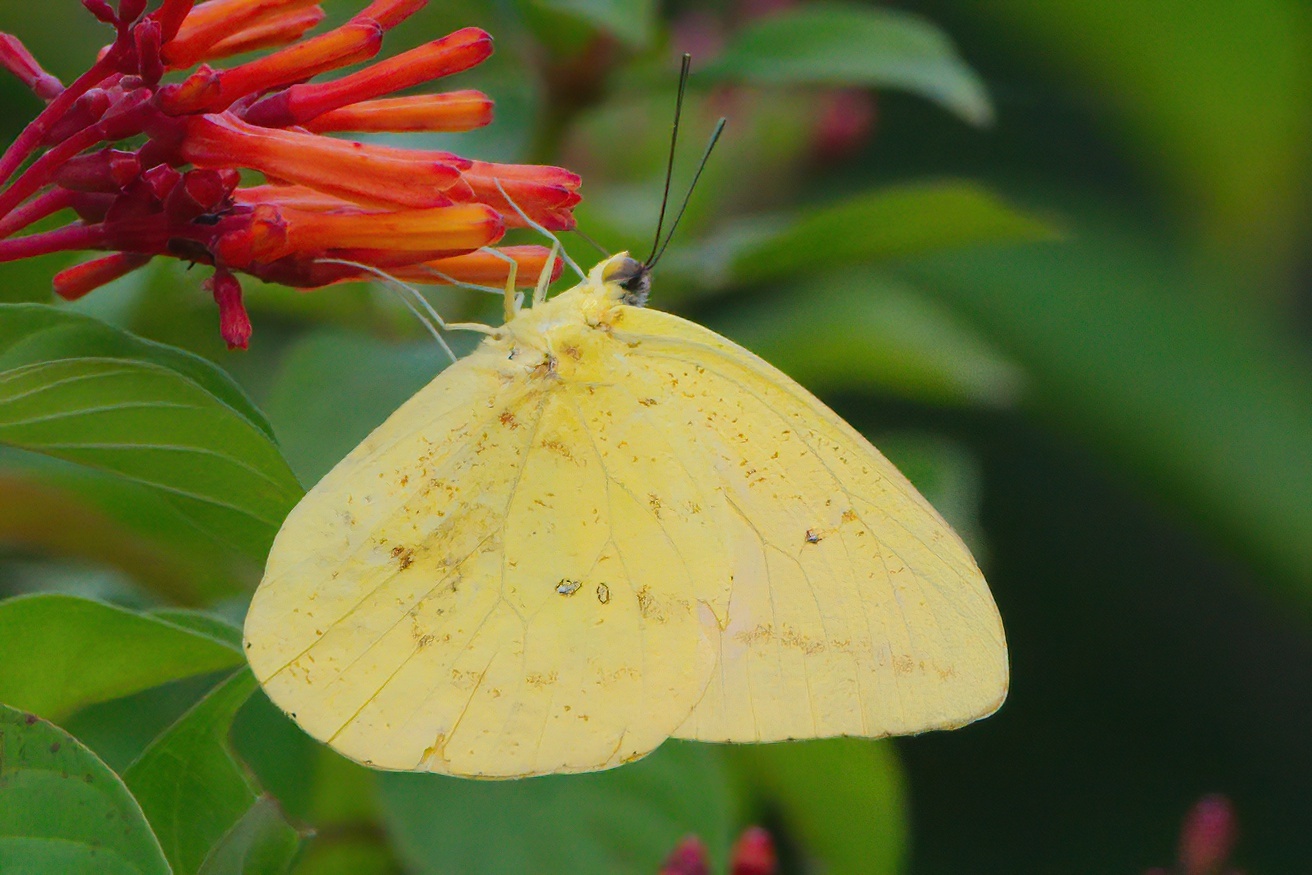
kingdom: Animalia
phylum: Arthropoda
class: Insecta
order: Lepidoptera
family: Pieridae
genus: Phoebis
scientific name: Phoebis agarithe
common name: Large orange sulphur
